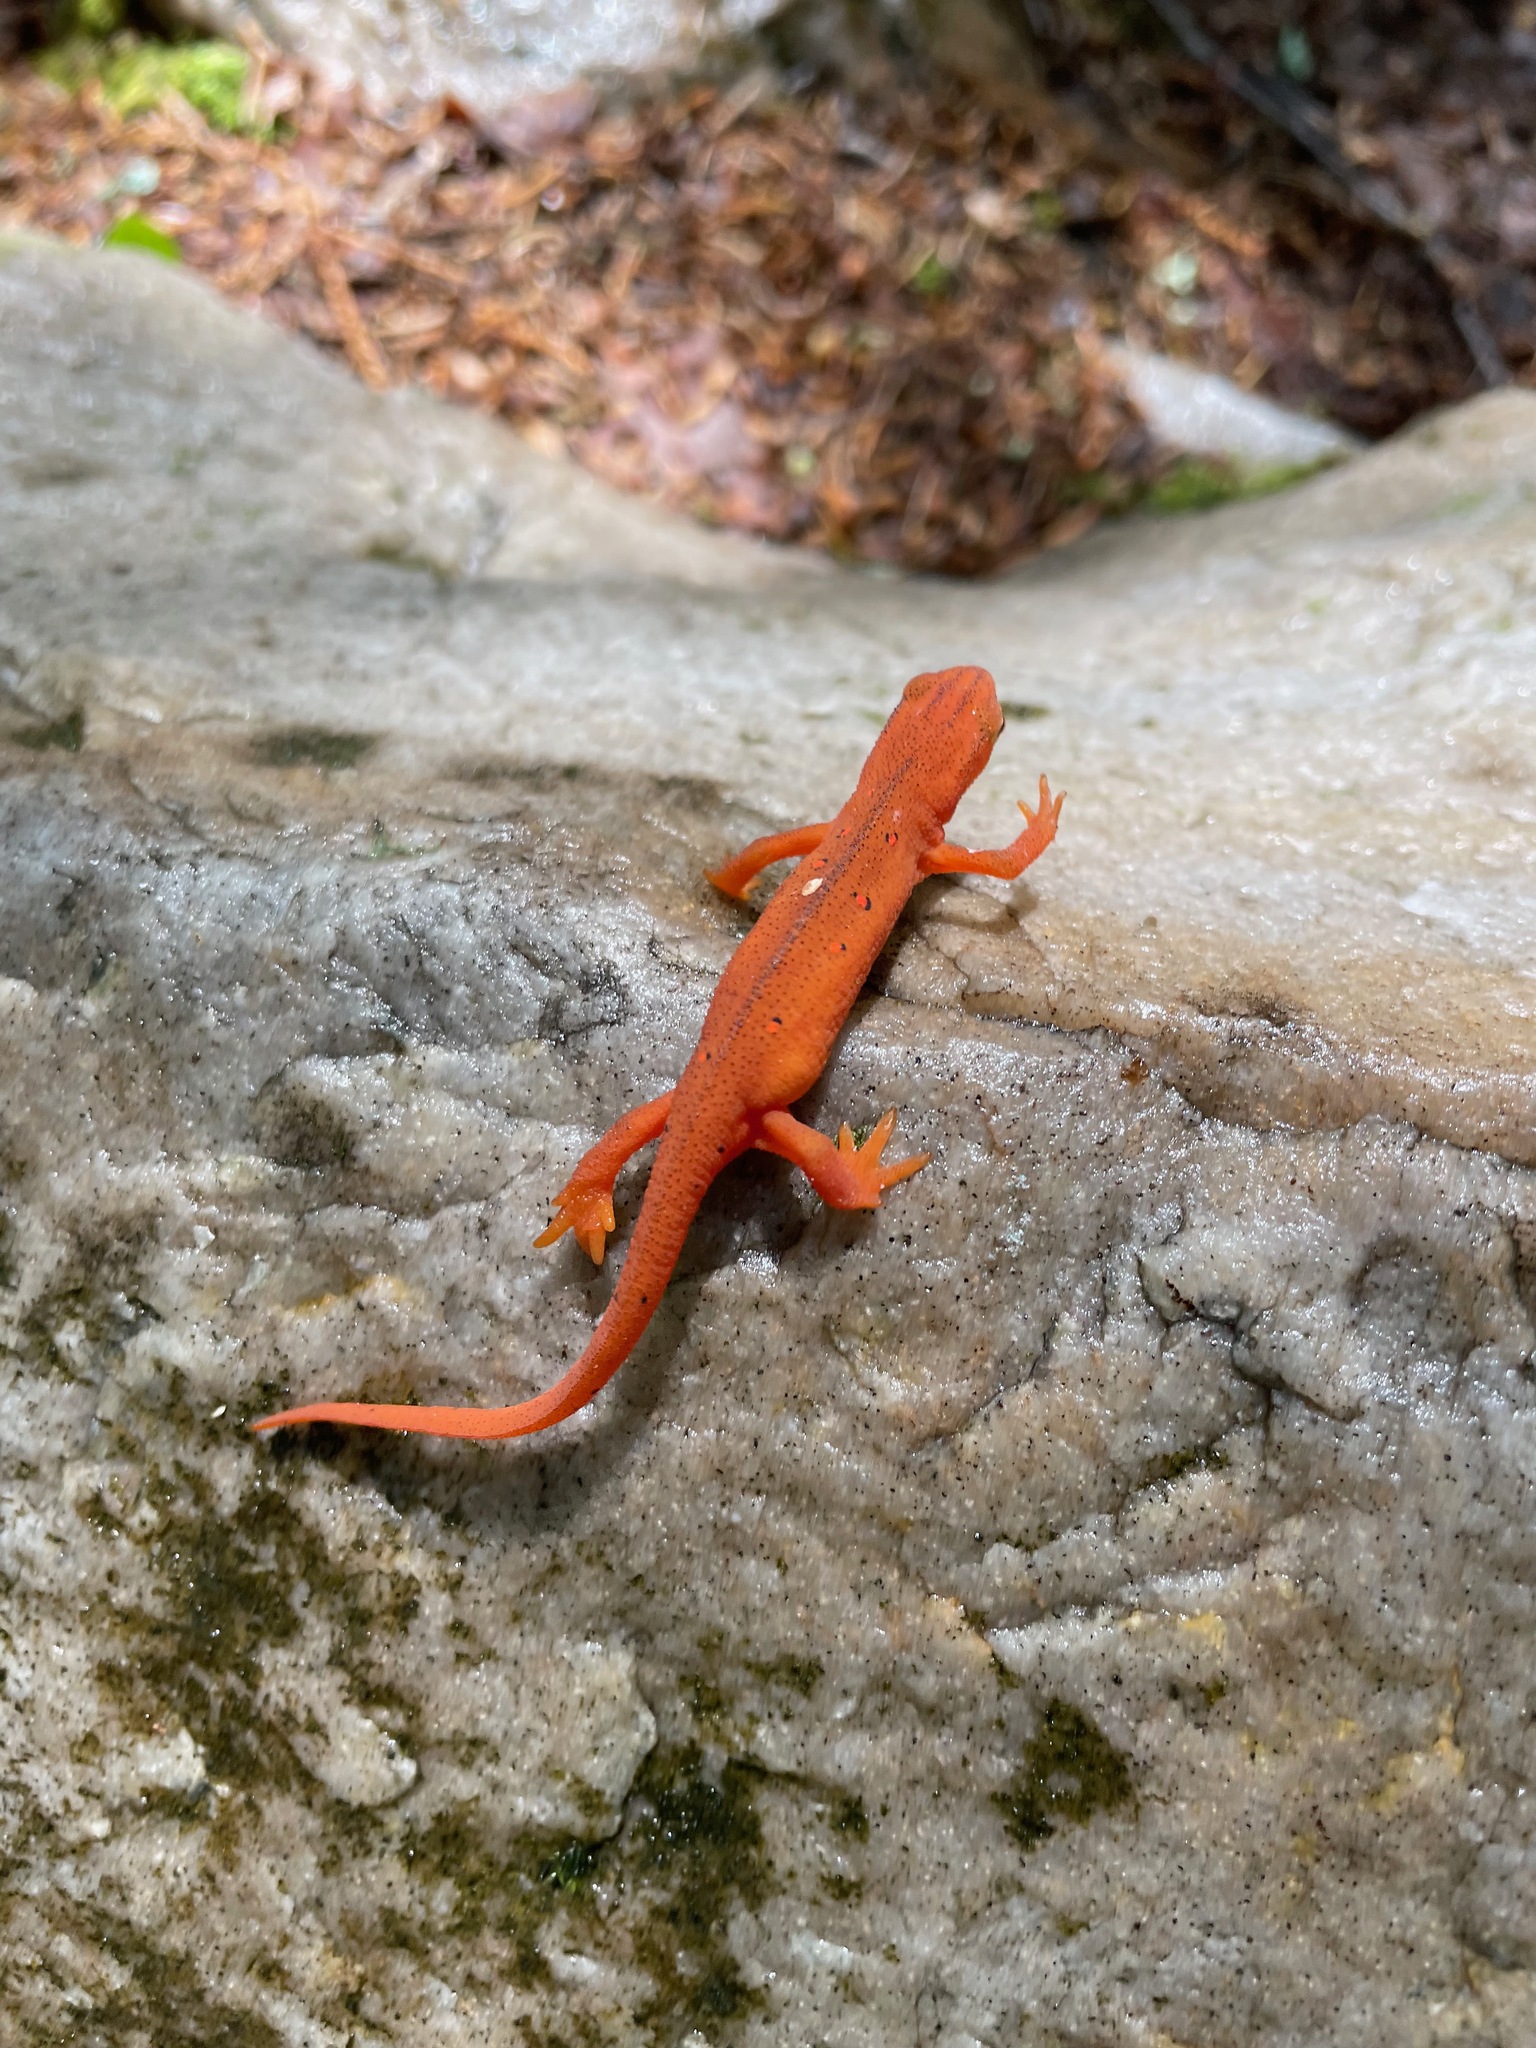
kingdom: Animalia
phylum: Chordata
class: Amphibia
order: Caudata
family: Salamandridae
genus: Notophthalmus
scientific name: Notophthalmus viridescens
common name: Eastern newt
